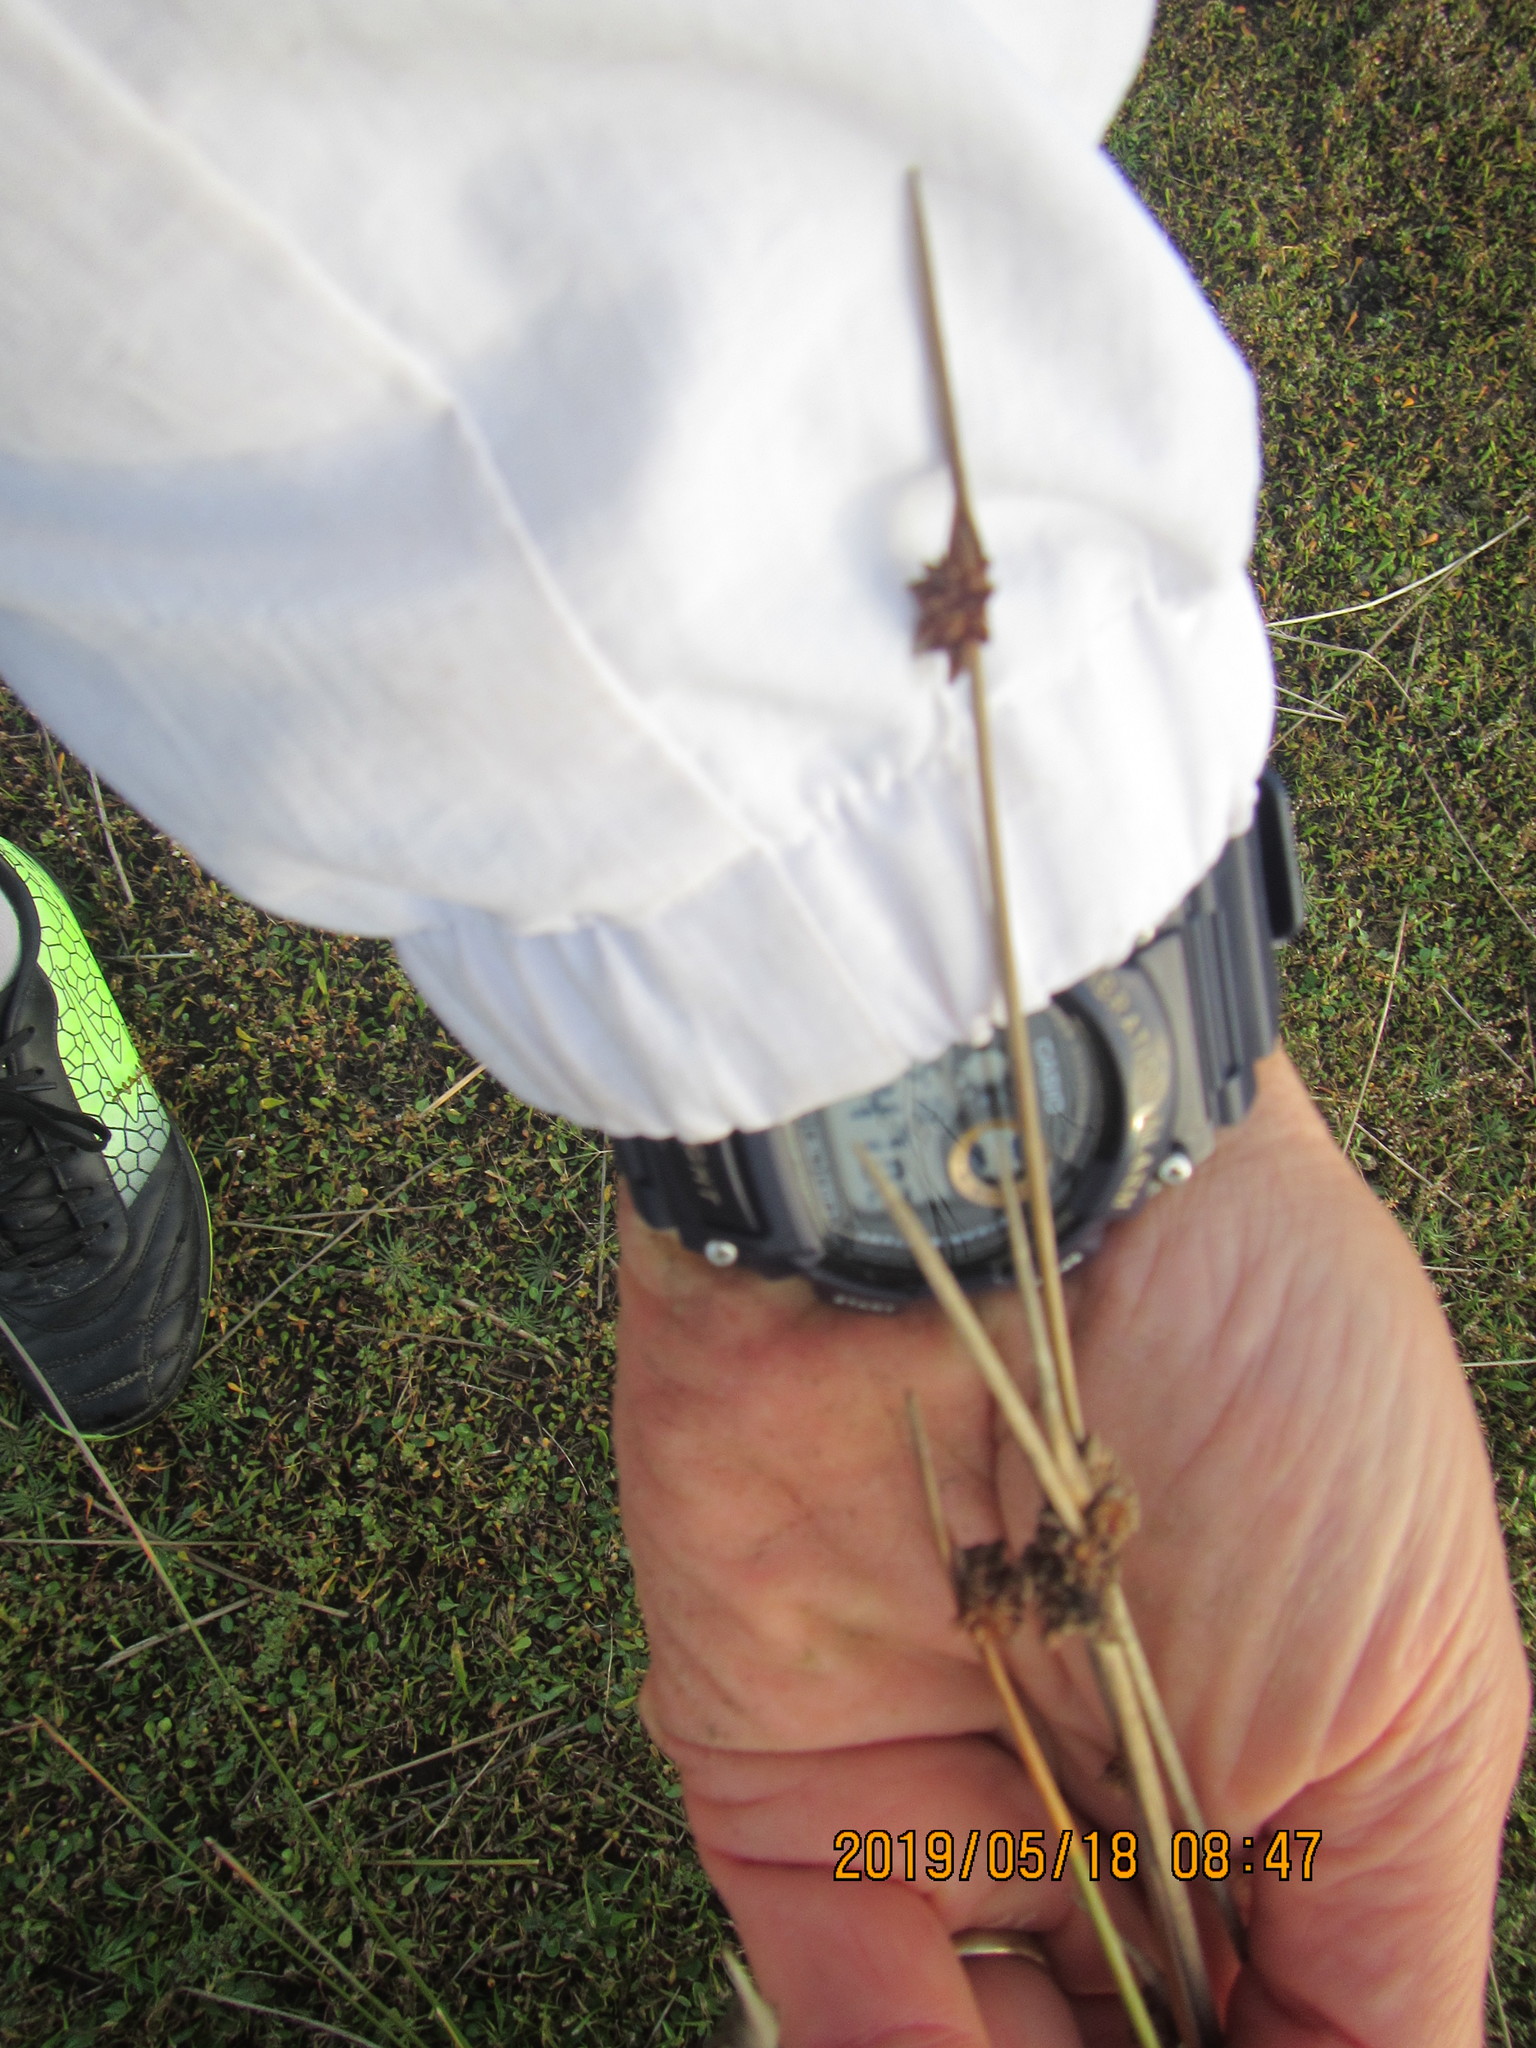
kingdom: Plantae
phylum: Tracheophyta
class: Liliopsida
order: Poales
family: Cyperaceae
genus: Ficinia
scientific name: Ficinia nodosa
